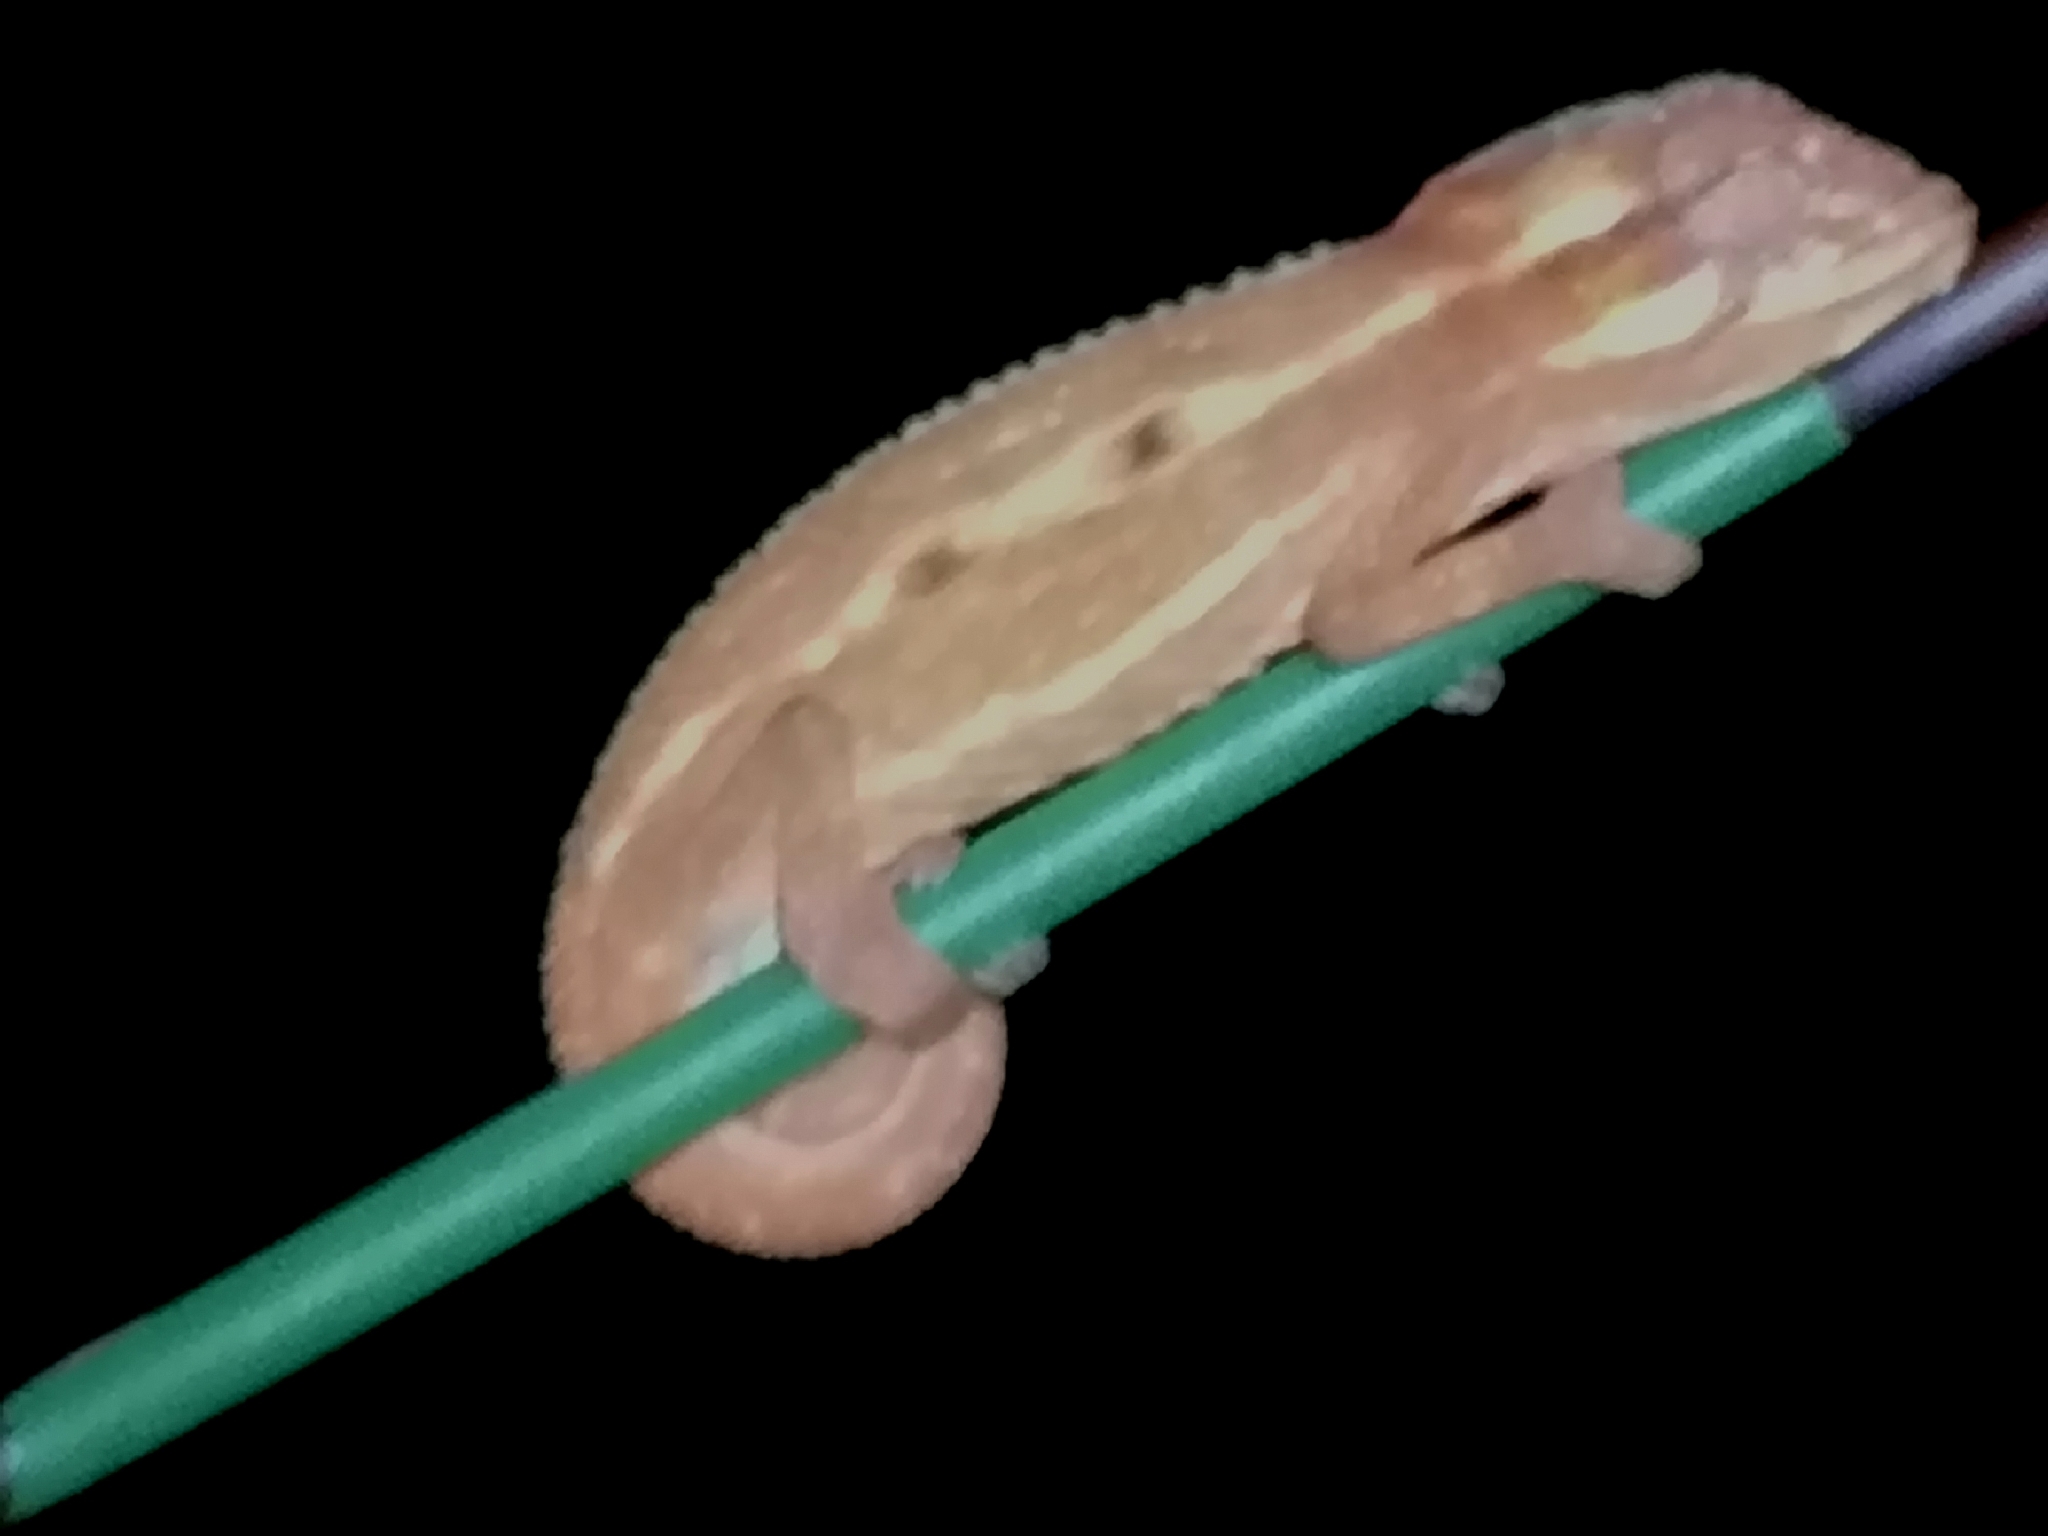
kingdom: Animalia
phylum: Chordata
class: Squamata
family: Chamaeleonidae
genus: Bradypodion
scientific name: Bradypodion pumilum
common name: Cape dwarf chameleon
